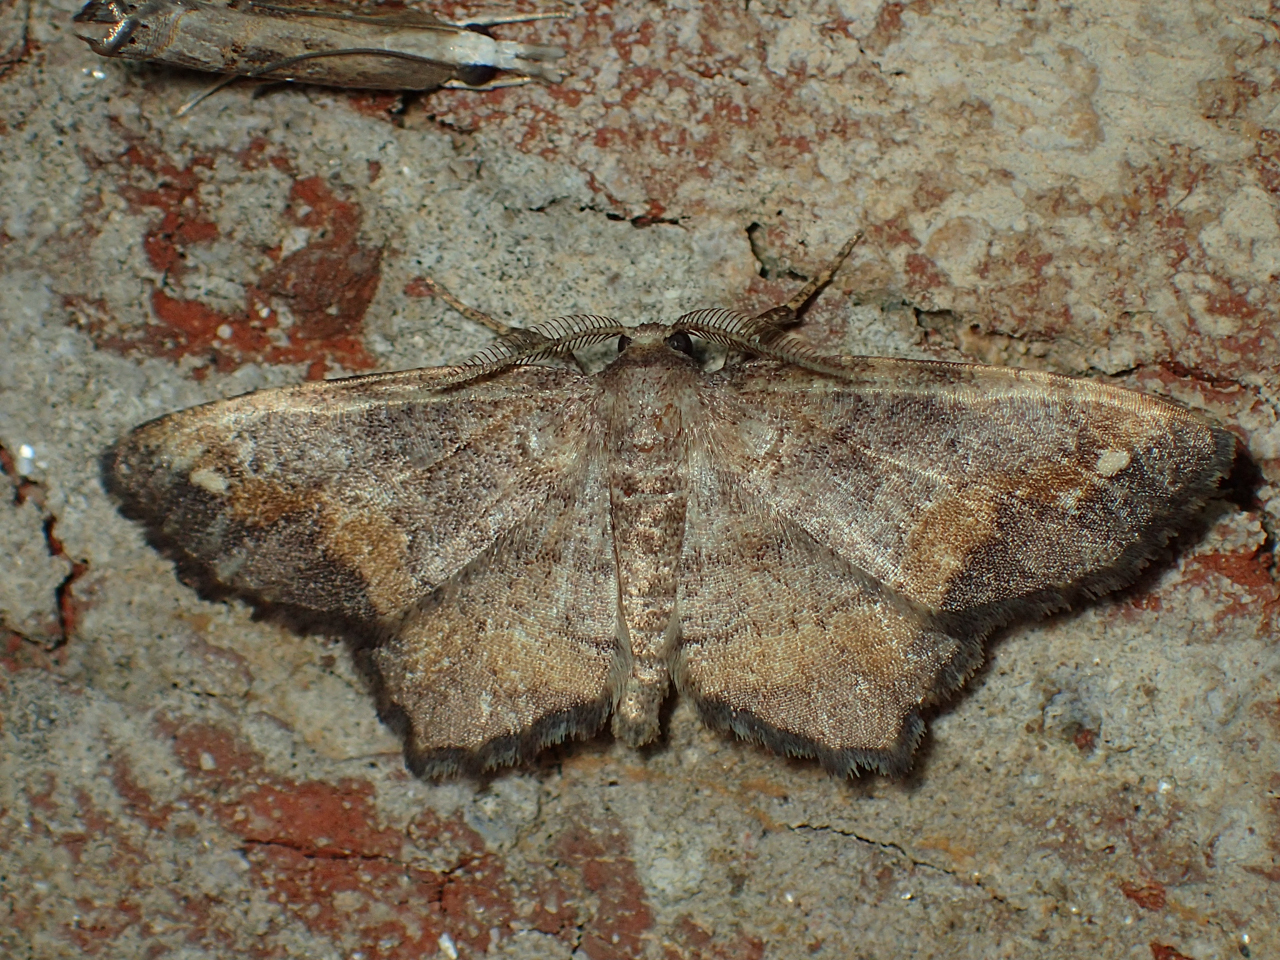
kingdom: Animalia
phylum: Arthropoda
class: Insecta
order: Lepidoptera
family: Geometridae
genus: Hypagyrtis
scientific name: Hypagyrtis unipunctata
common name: One-spotted variant
